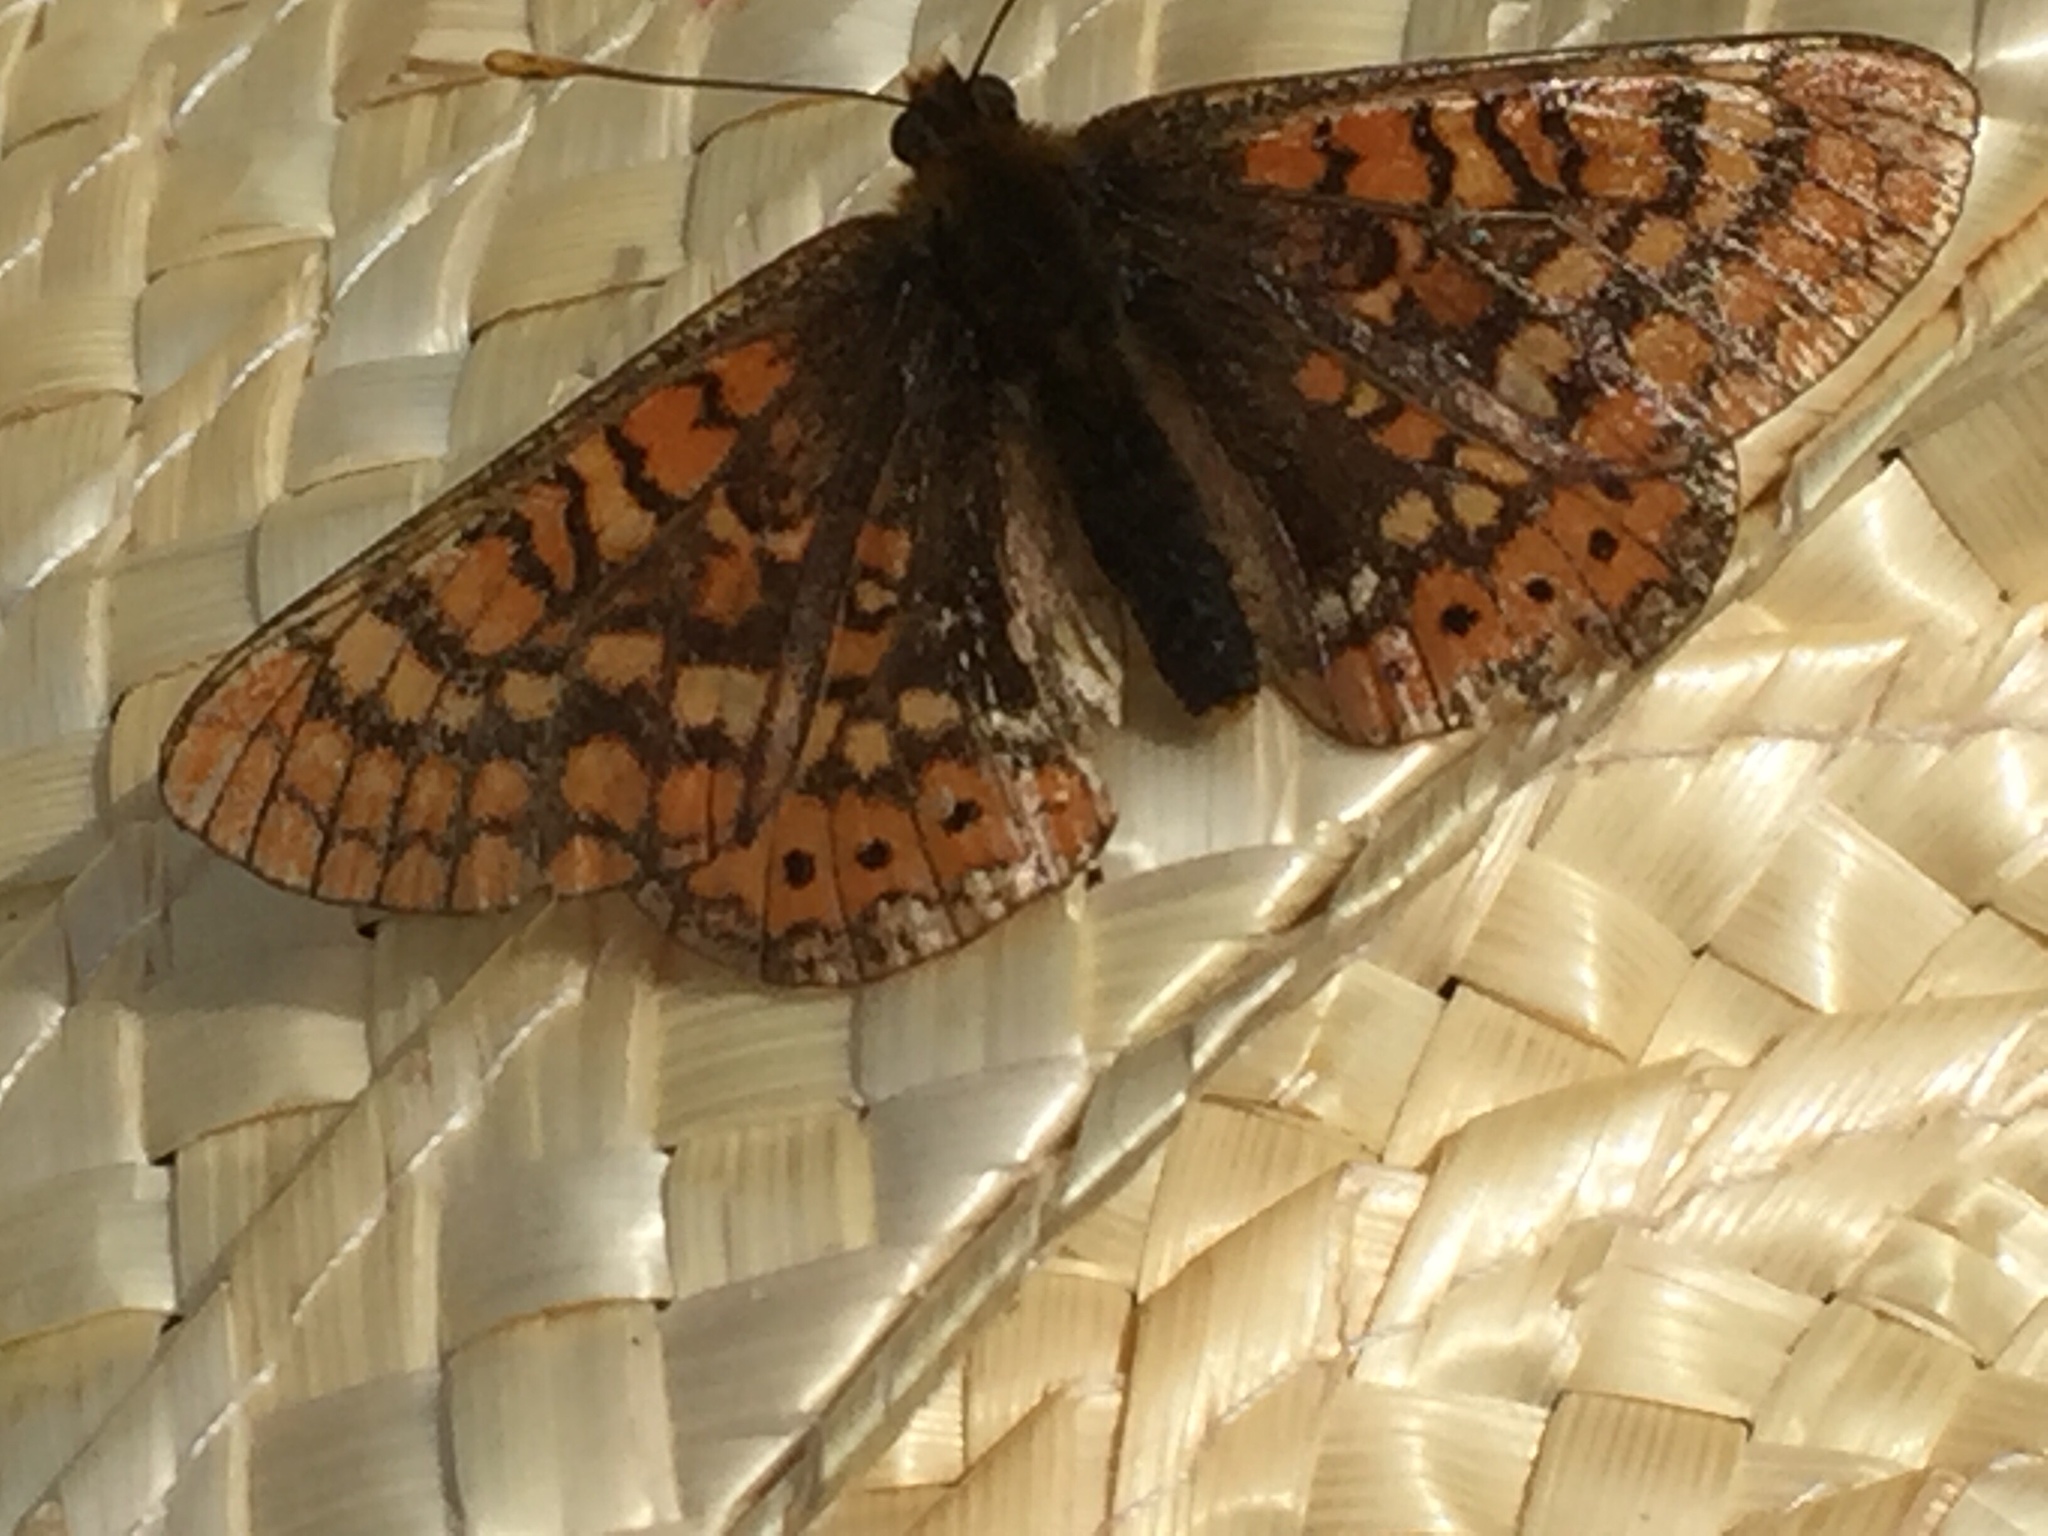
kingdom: Animalia
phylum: Arthropoda
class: Insecta
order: Lepidoptera
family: Nymphalidae
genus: Euphydryas
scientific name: Euphydryas aurinia
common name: Marsh fritillary
